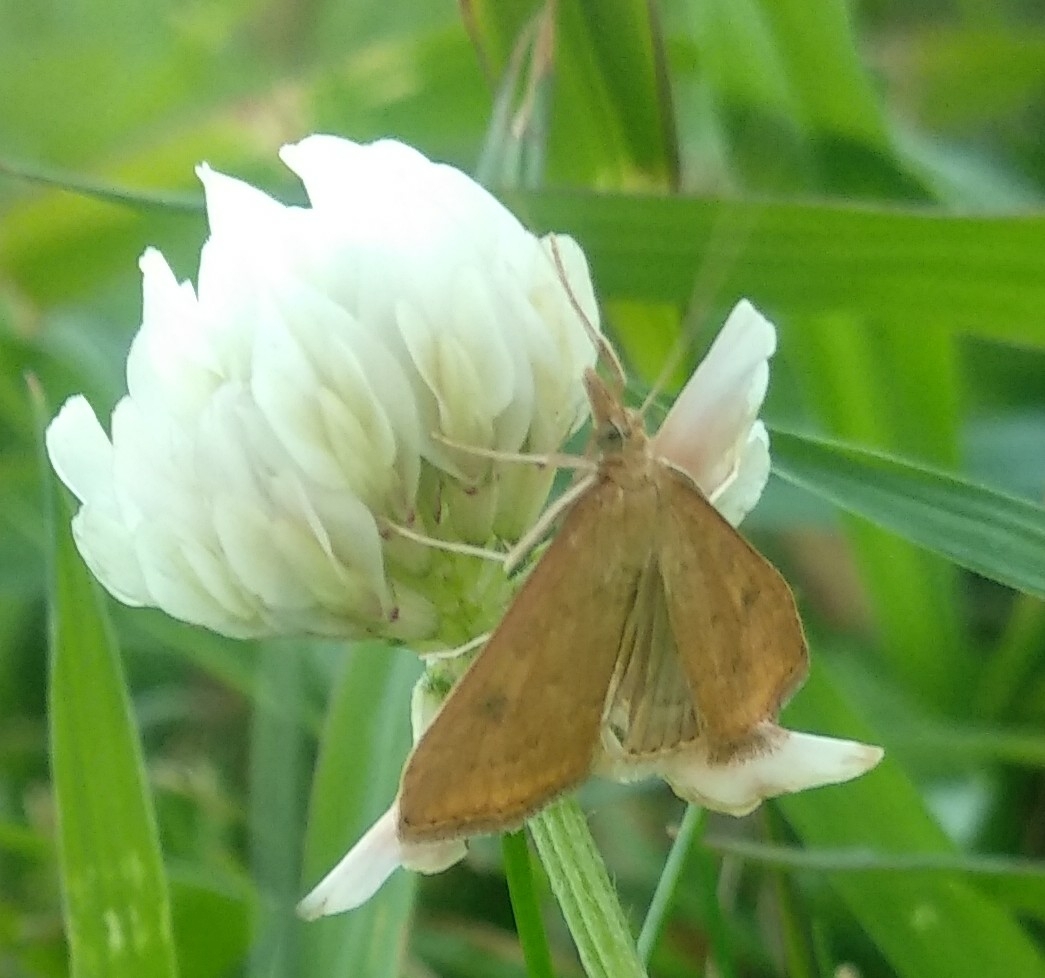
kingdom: Animalia
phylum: Arthropoda
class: Insecta
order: Lepidoptera
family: Crambidae
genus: Udea
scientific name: Udea ferrugalis
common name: Rusty dot
